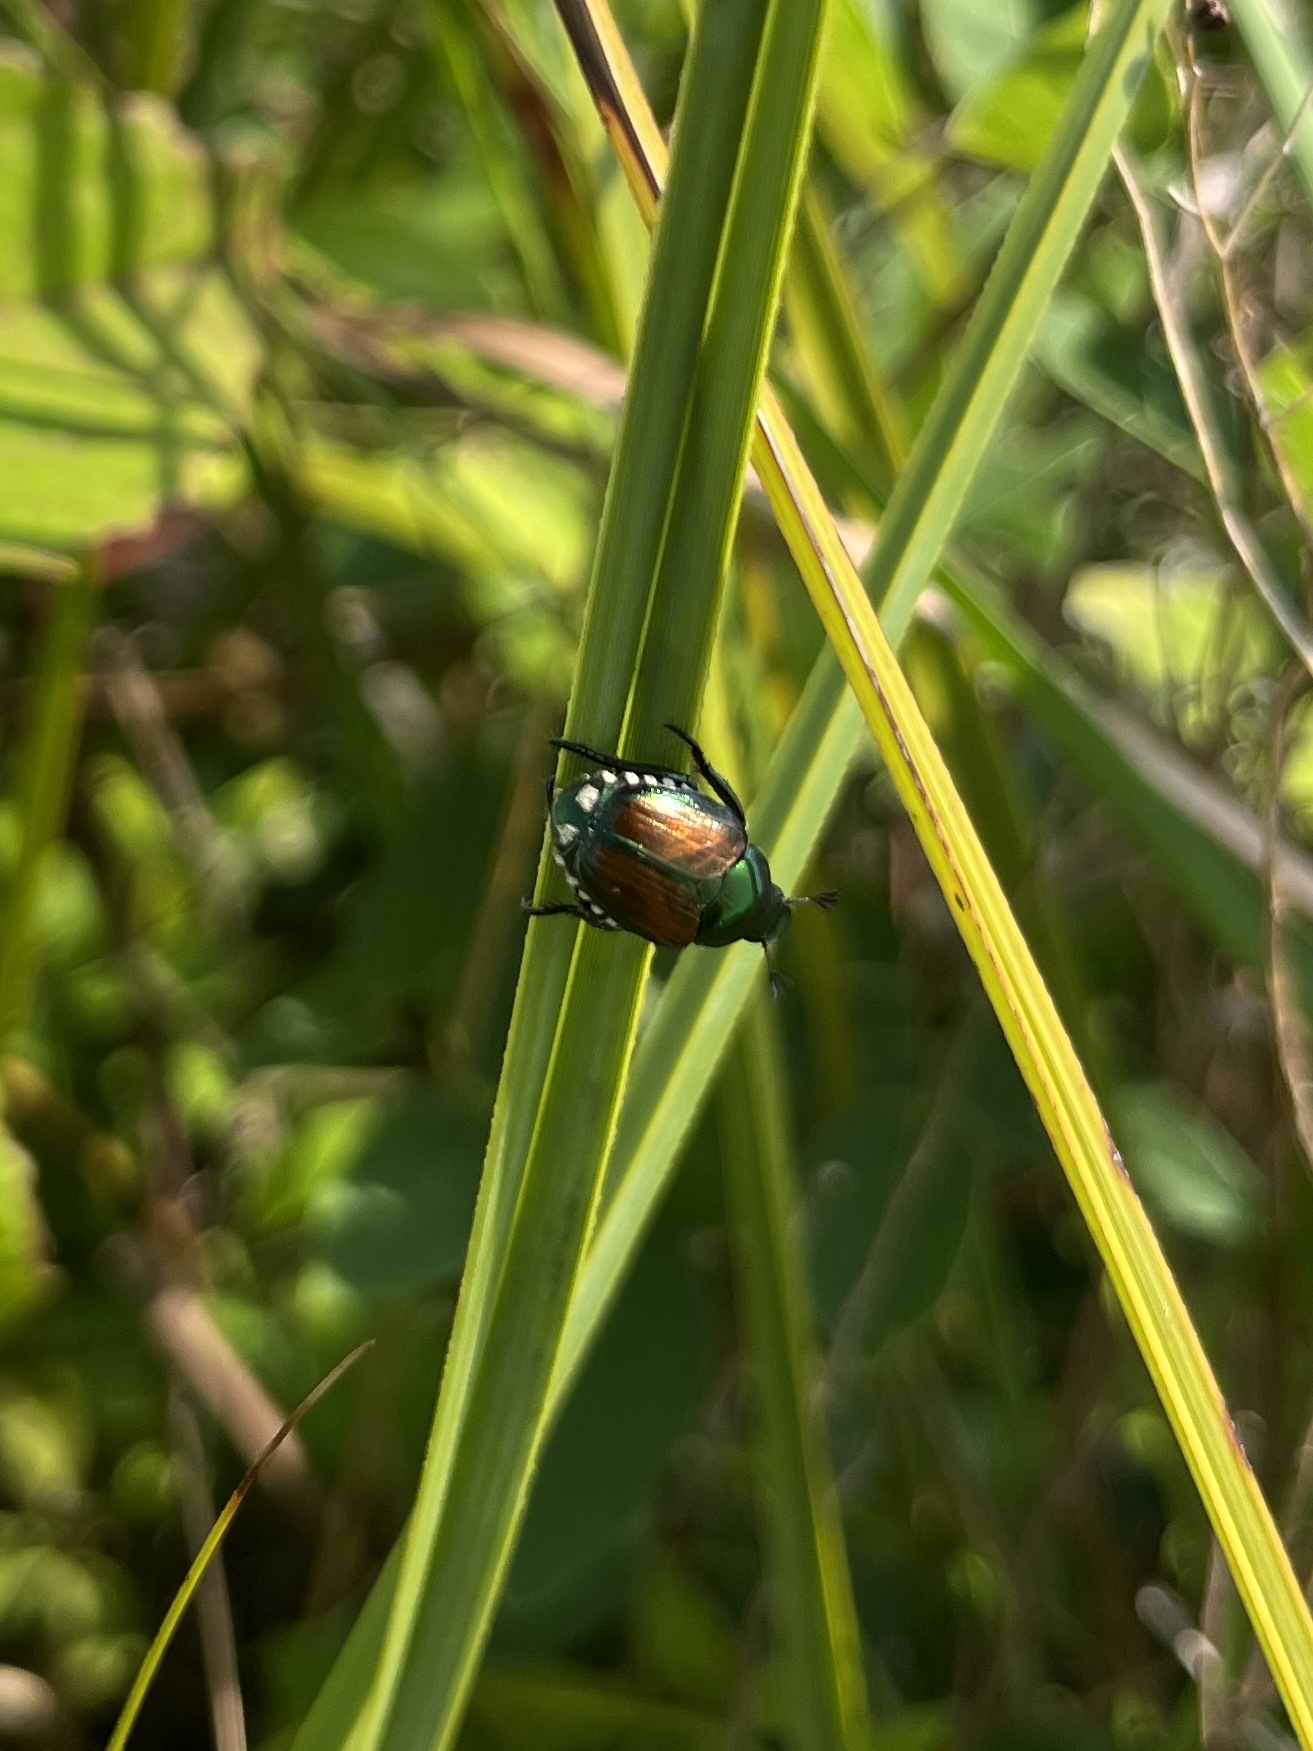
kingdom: Animalia
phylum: Arthropoda
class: Insecta
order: Coleoptera
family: Scarabaeidae
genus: Popillia
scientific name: Popillia japonica
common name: Japanese beetle
